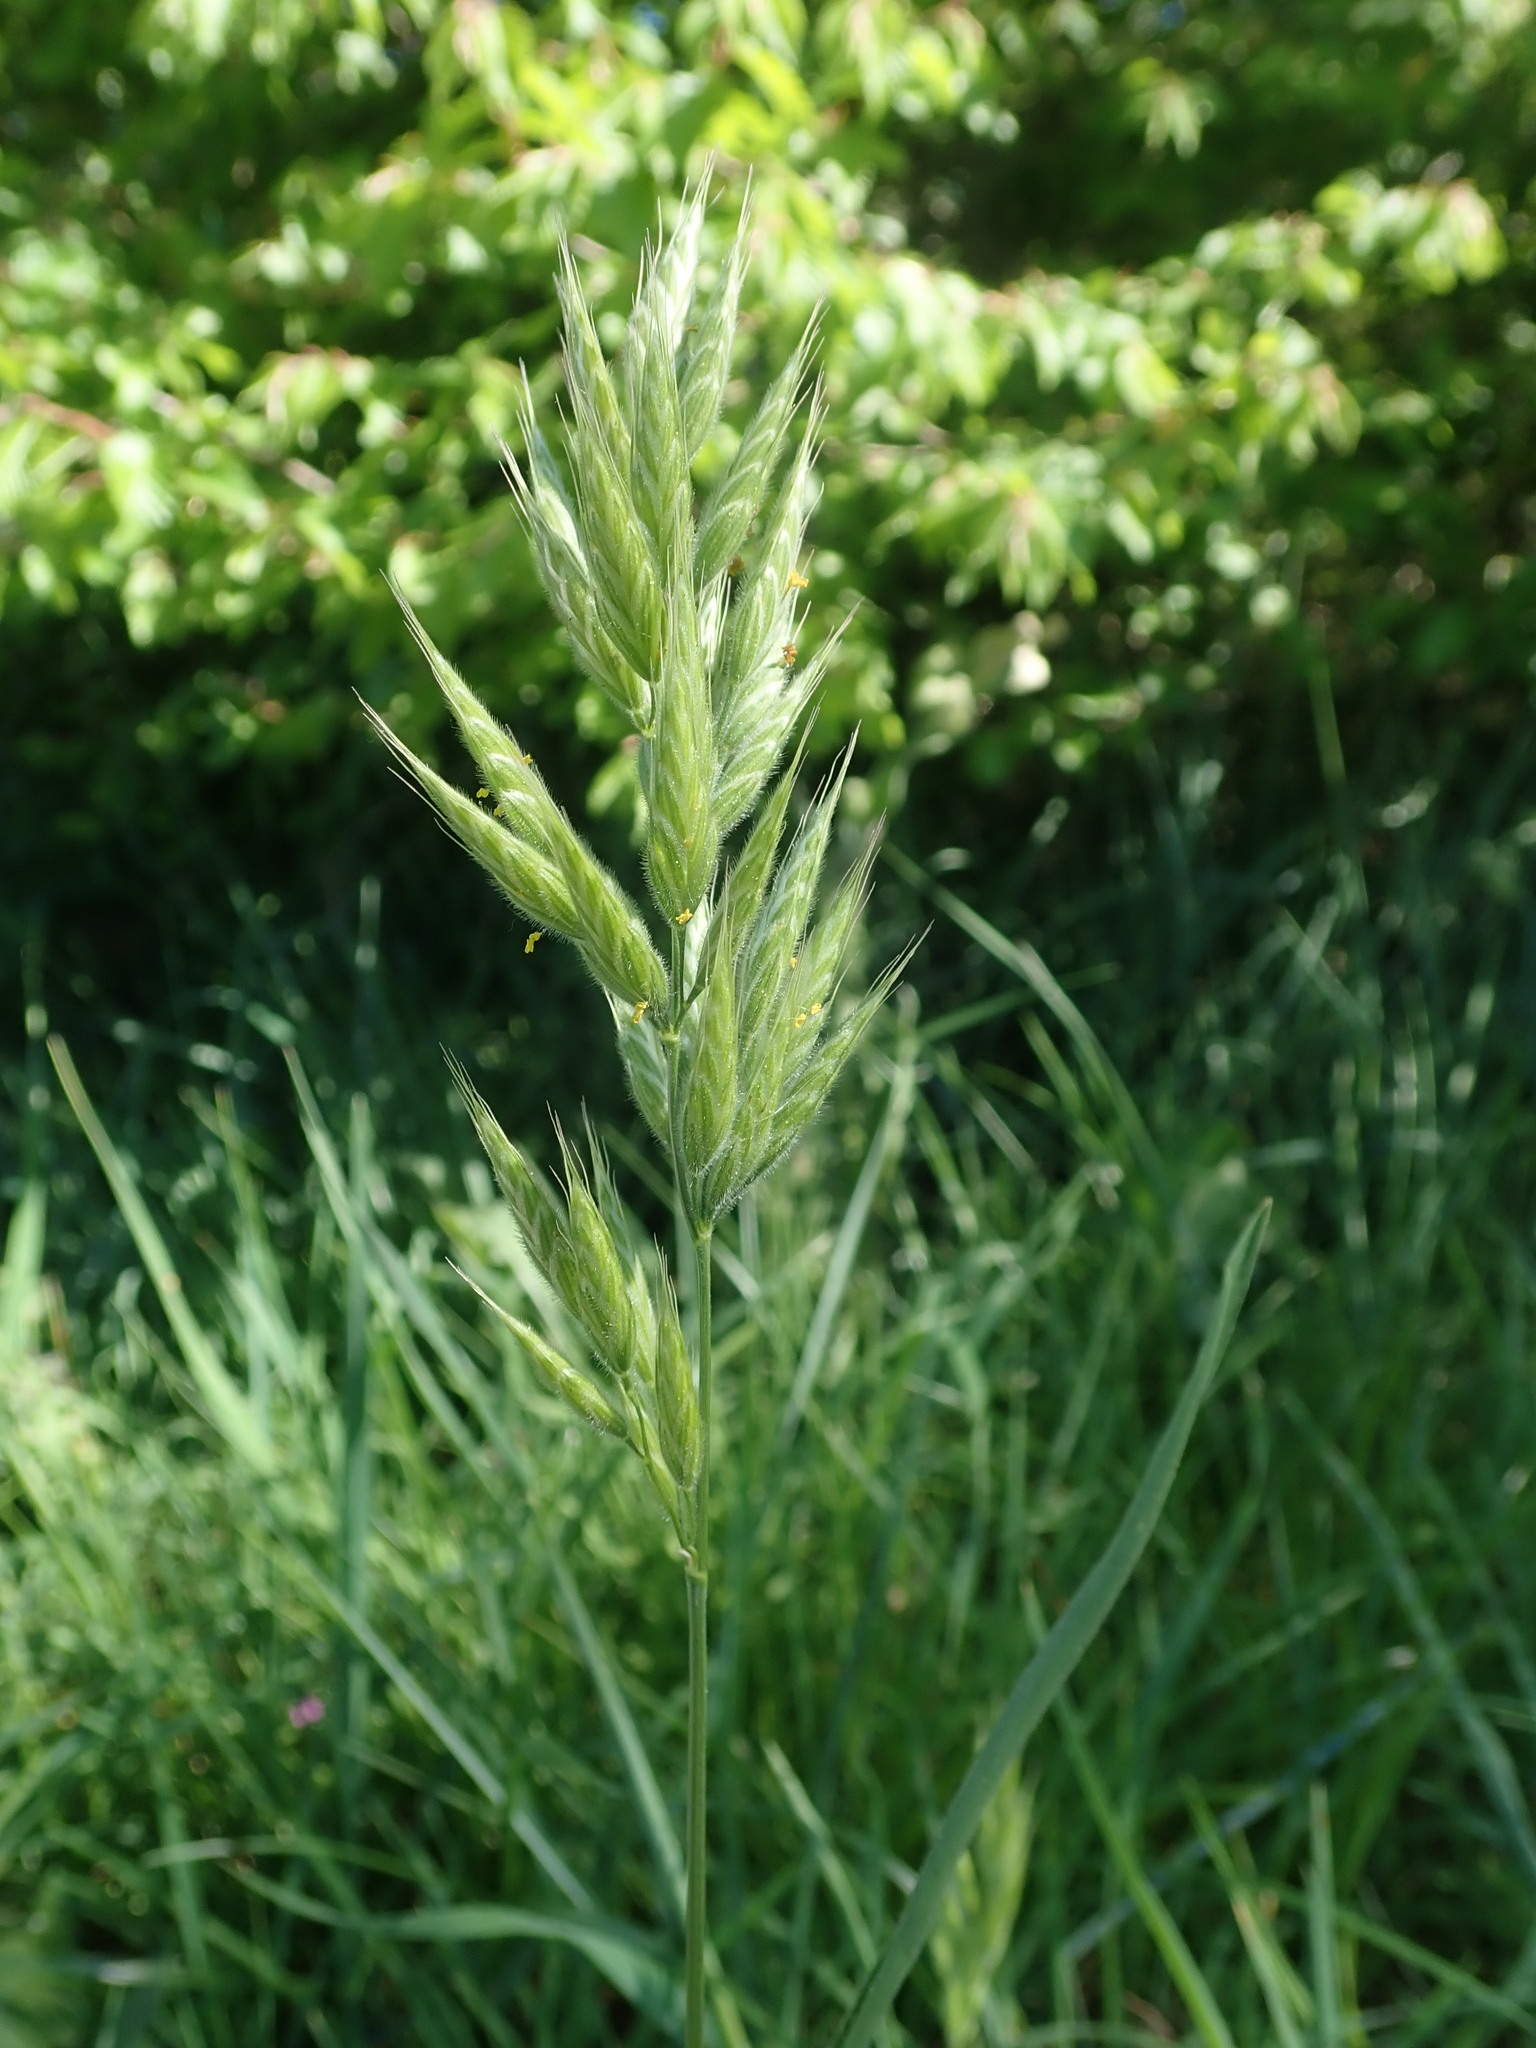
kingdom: Plantae
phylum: Tracheophyta
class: Liliopsida
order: Poales
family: Poaceae
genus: Bromus
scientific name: Bromus hordeaceus
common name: Soft brome
